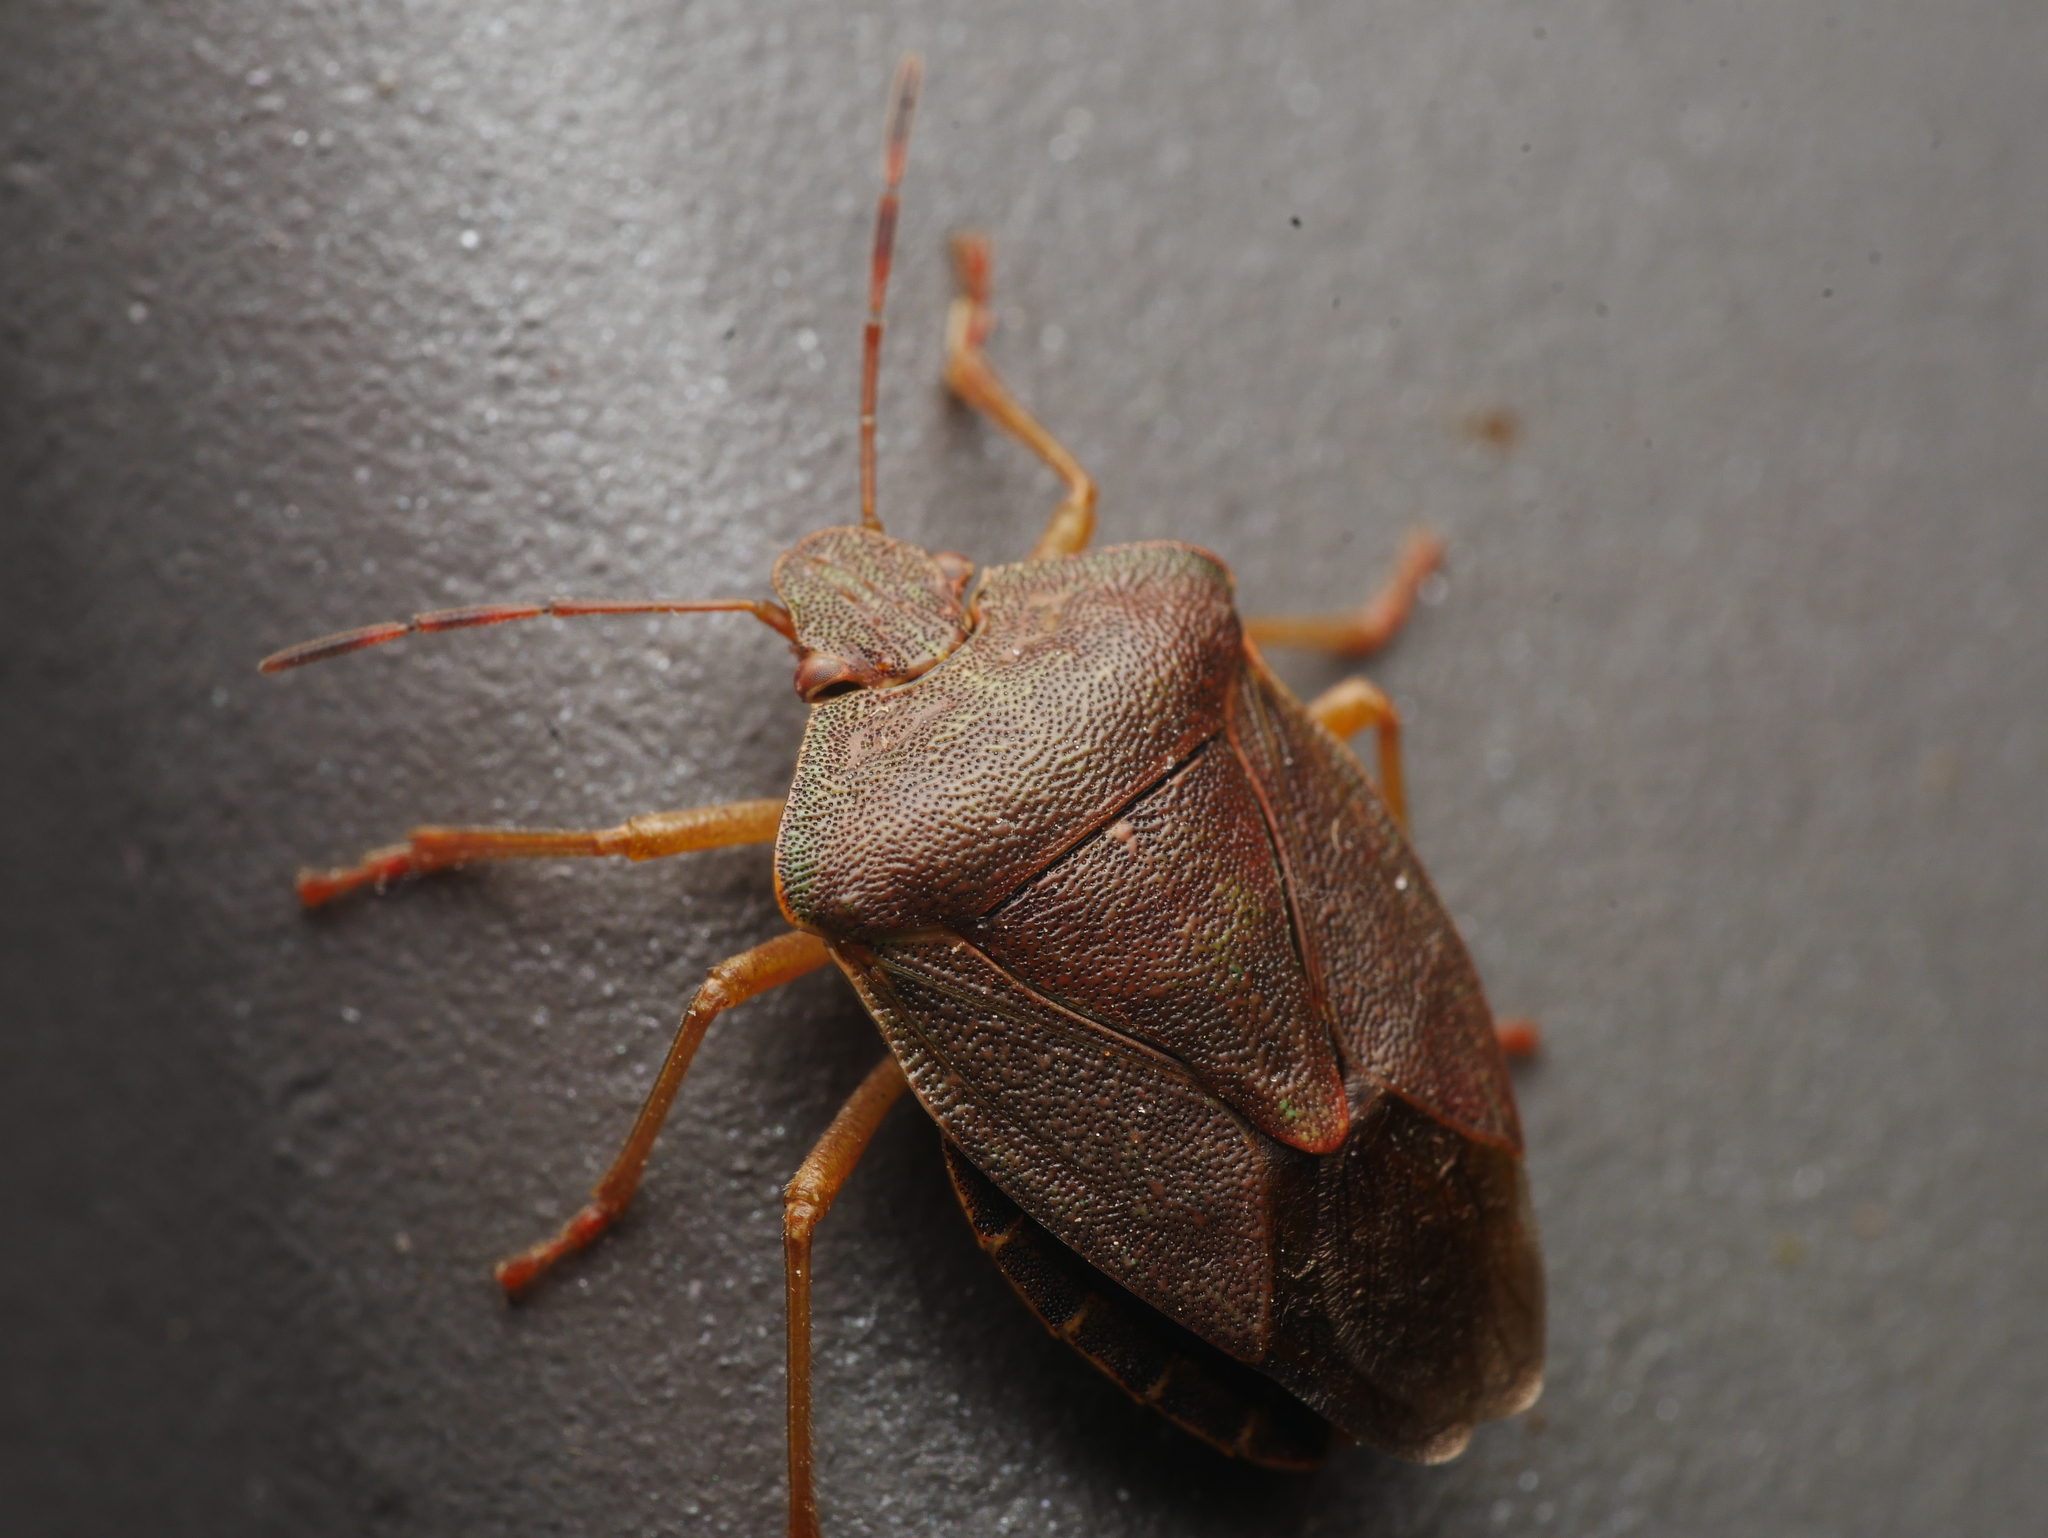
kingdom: Animalia
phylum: Arthropoda
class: Insecta
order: Hemiptera
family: Pentatomidae
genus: Palomena
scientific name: Palomena prasina
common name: Green shieldbug
